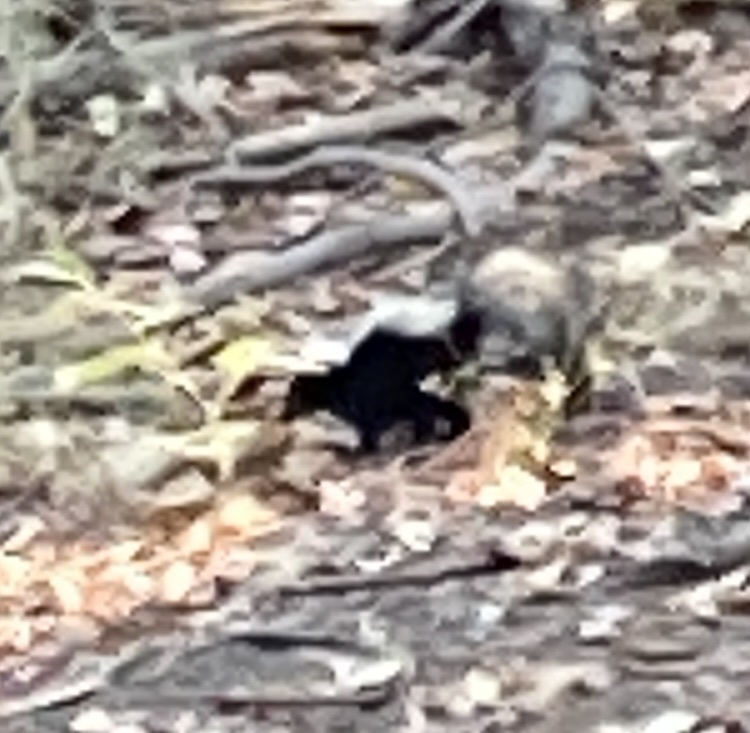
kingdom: Animalia
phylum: Chordata
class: Mammalia
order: Carnivora
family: Mephitidae
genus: Mephitis
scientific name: Mephitis mephitis
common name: Striped skunk
